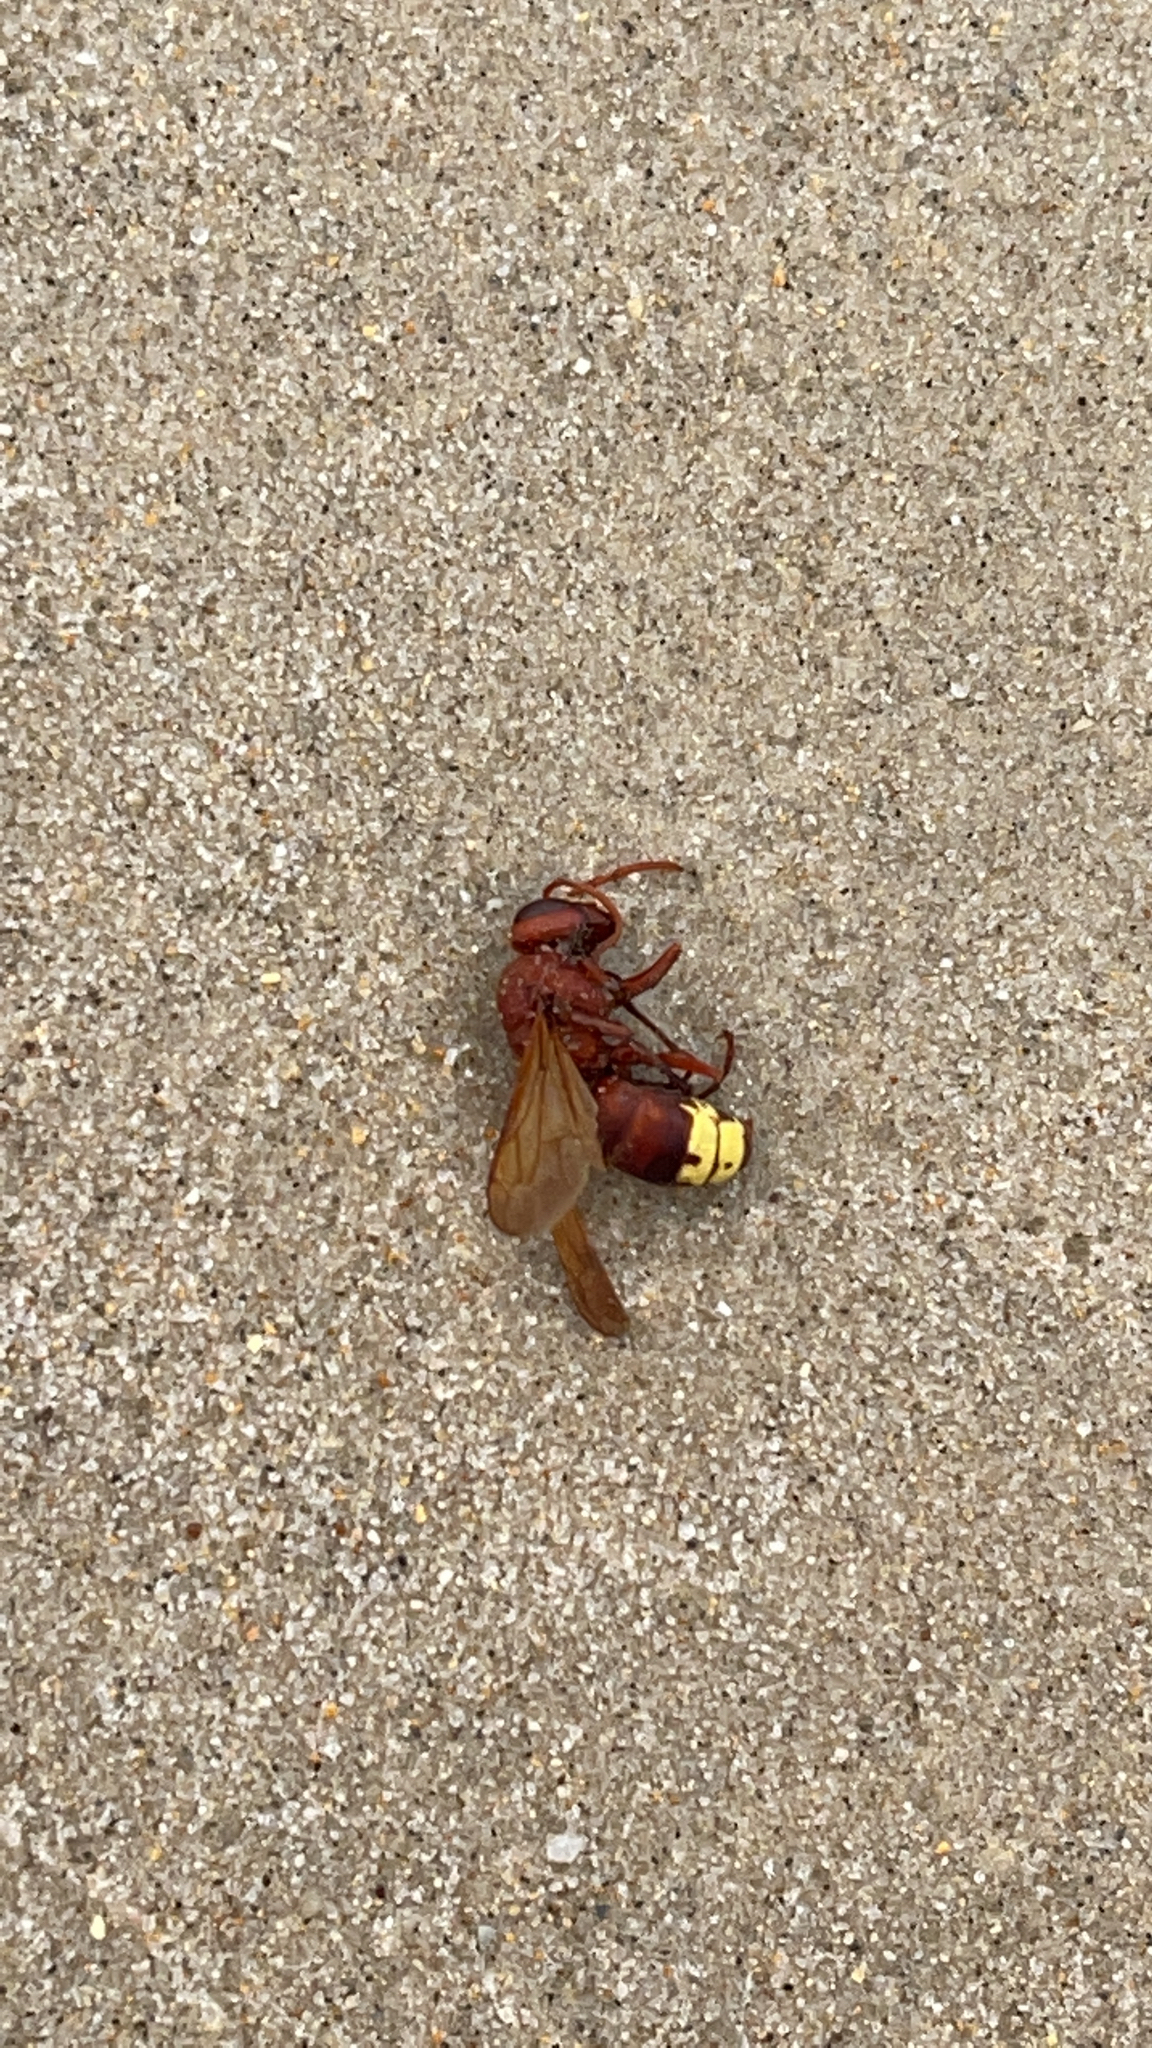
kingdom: Animalia
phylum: Arthropoda
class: Insecta
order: Hymenoptera
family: Vespidae
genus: Vespa
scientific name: Vespa orientalis
